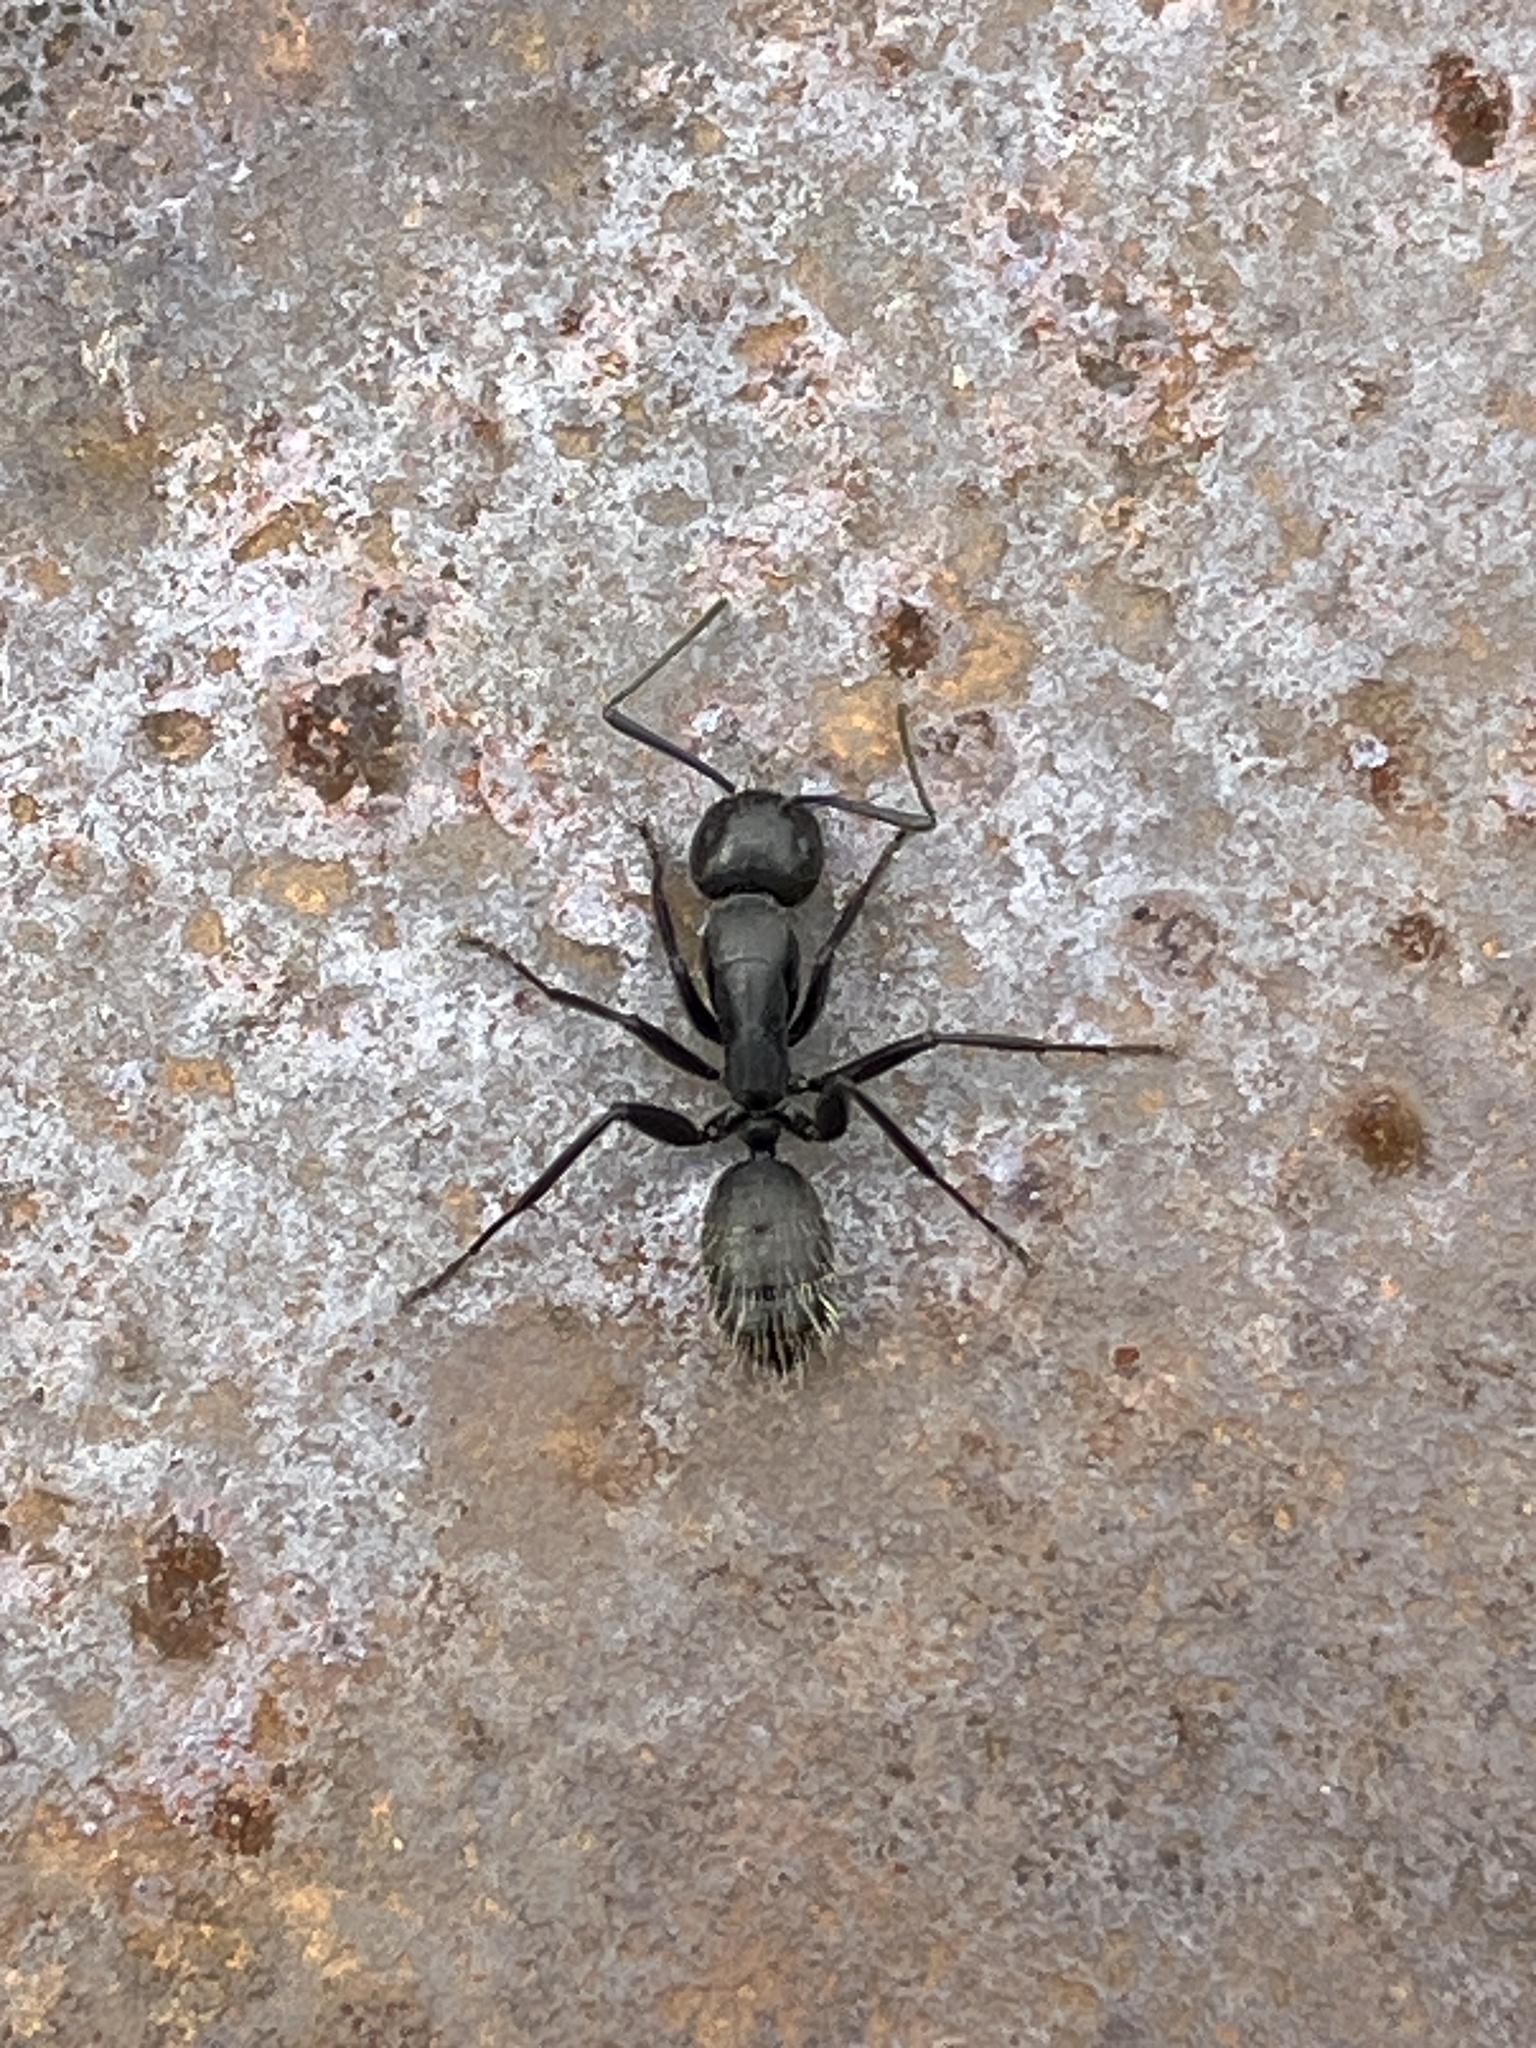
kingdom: Animalia
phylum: Arthropoda
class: Insecta
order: Hymenoptera
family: Formicidae
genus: Camponotus
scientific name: Camponotus vagus
